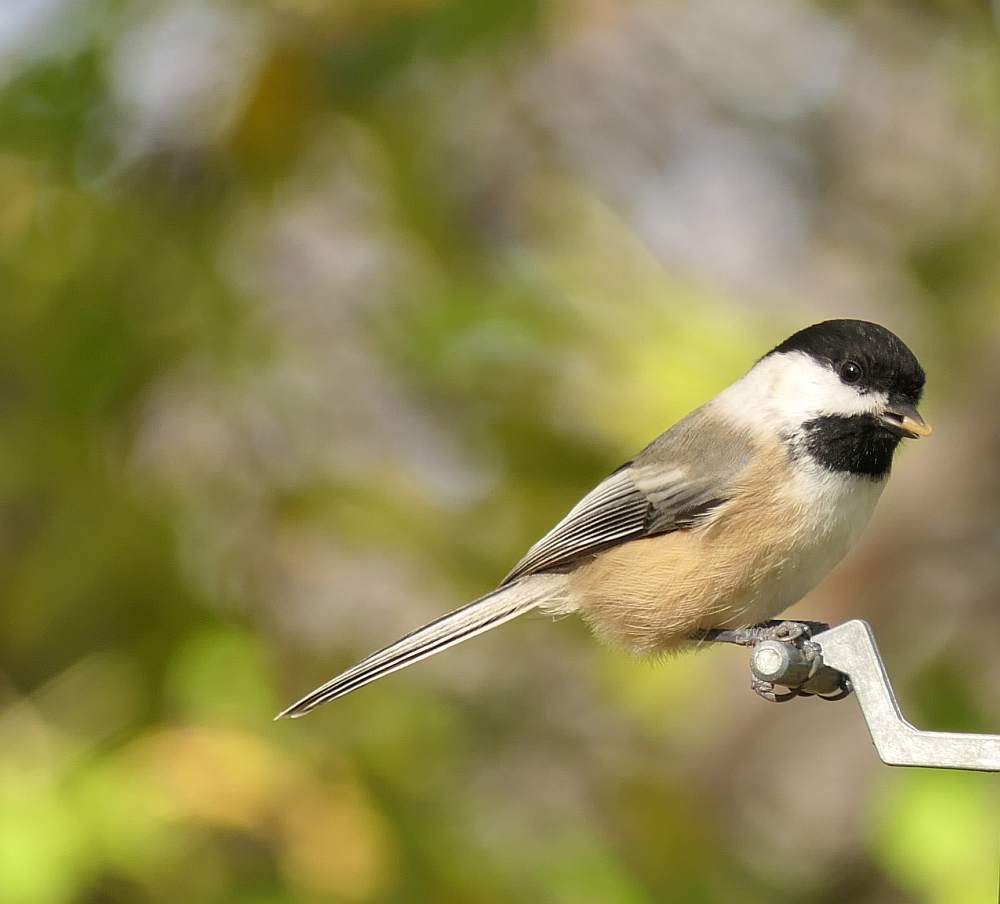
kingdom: Animalia
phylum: Chordata
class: Aves
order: Passeriformes
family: Paridae
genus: Poecile
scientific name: Poecile atricapillus
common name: Black-capped chickadee
